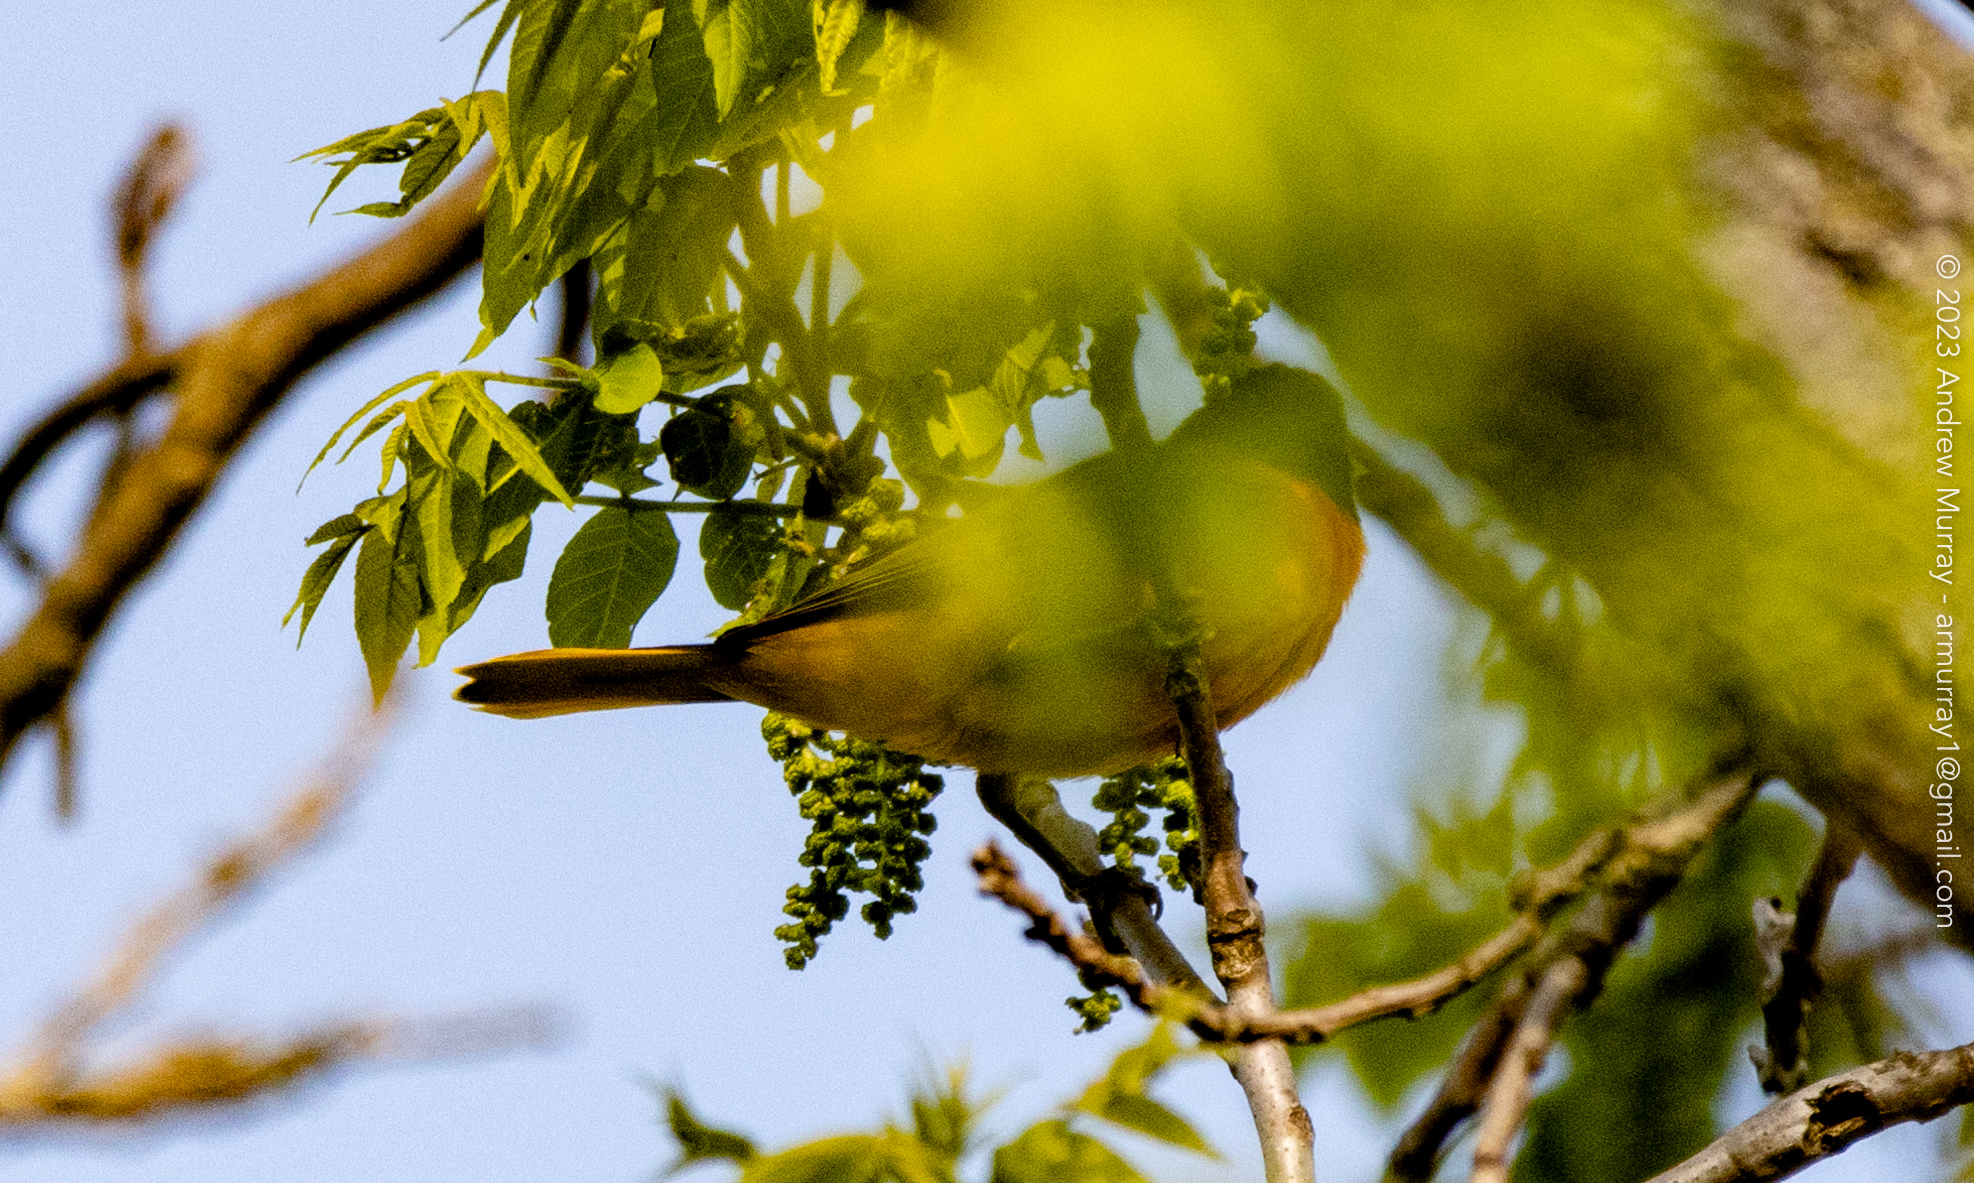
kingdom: Animalia
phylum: Chordata
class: Aves
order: Passeriformes
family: Icteridae
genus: Icterus
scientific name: Icterus galbula
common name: Baltimore oriole
